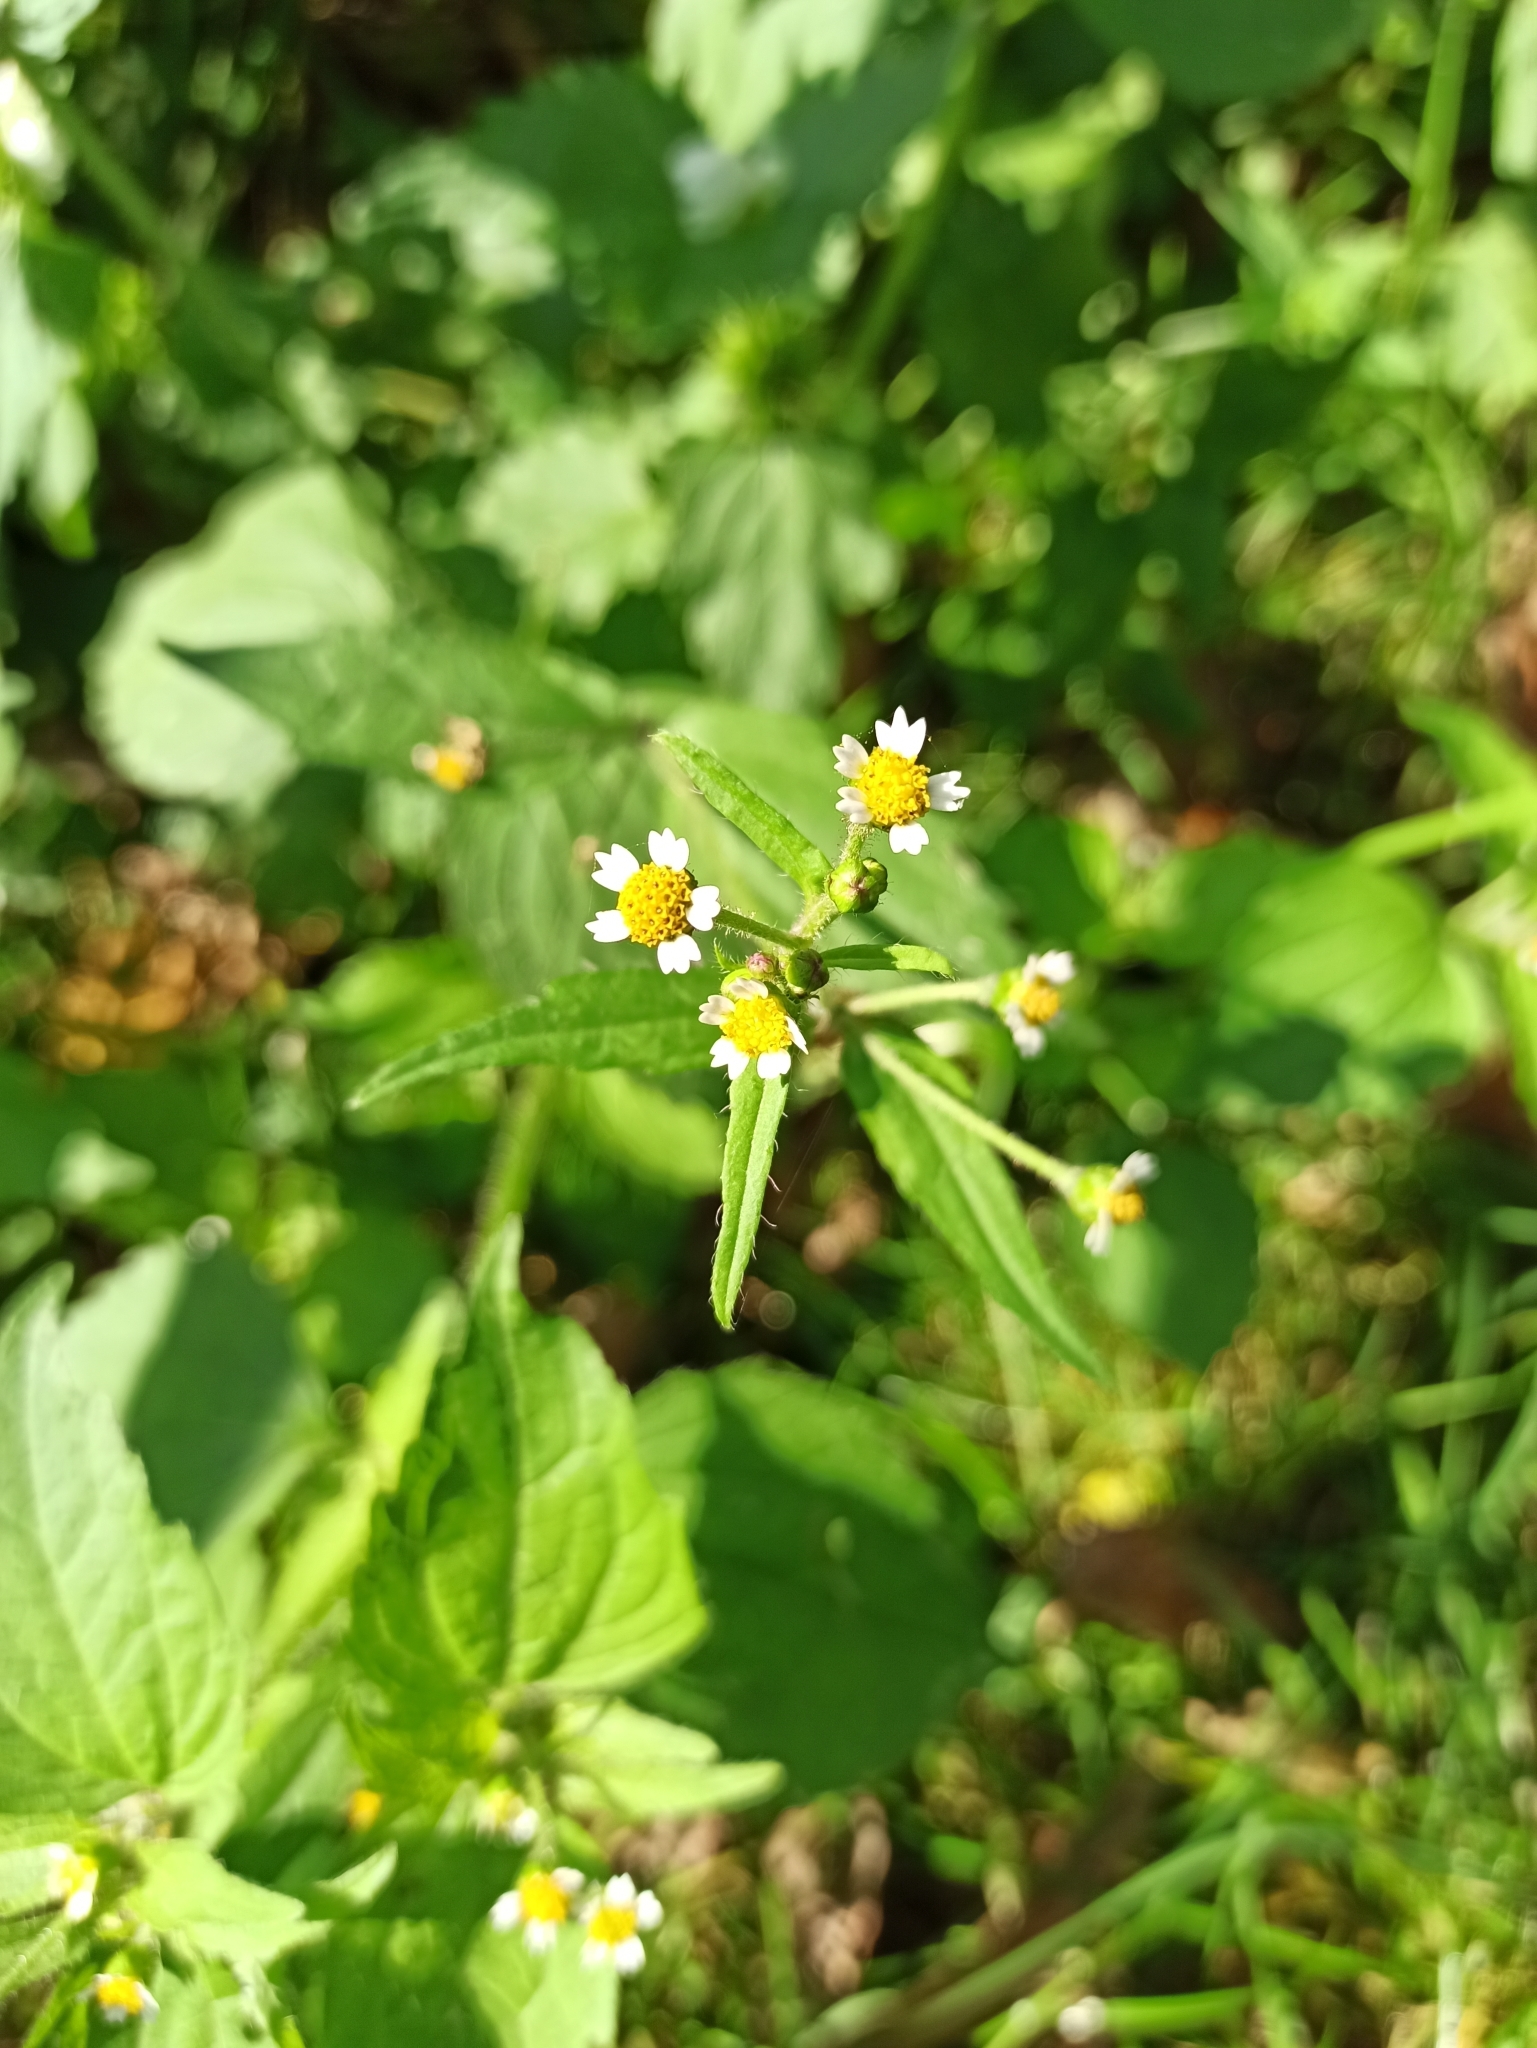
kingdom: Plantae
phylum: Tracheophyta
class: Magnoliopsida
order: Asterales
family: Asteraceae
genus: Galinsoga
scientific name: Galinsoga quadriradiata
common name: Shaggy soldier
